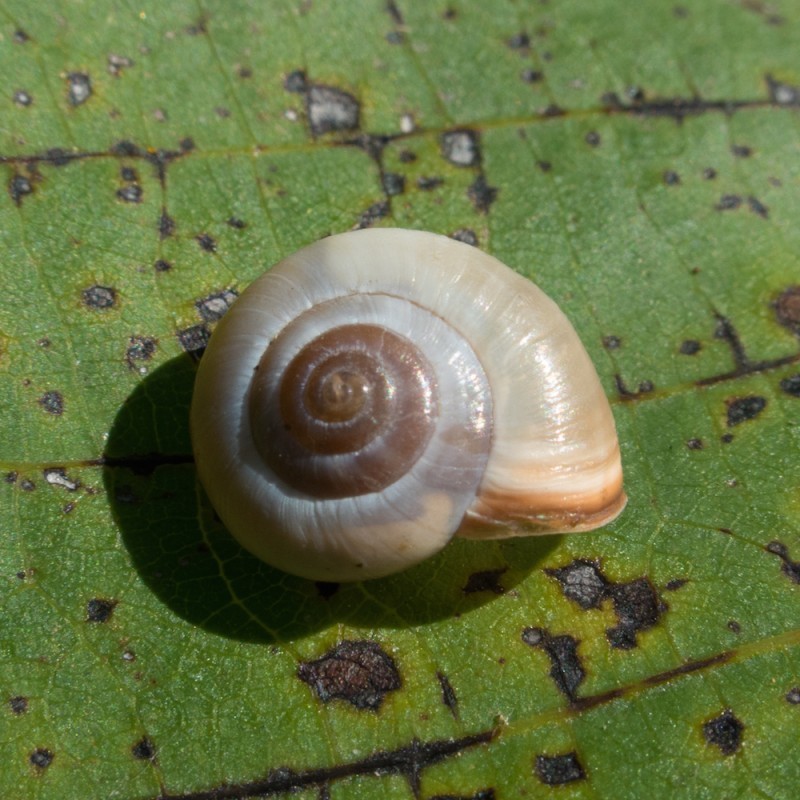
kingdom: Animalia
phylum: Mollusca
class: Gastropoda
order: Stylommatophora
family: Hygromiidae
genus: Monacha
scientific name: Monacha cartusiana
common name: Carthusian snail
